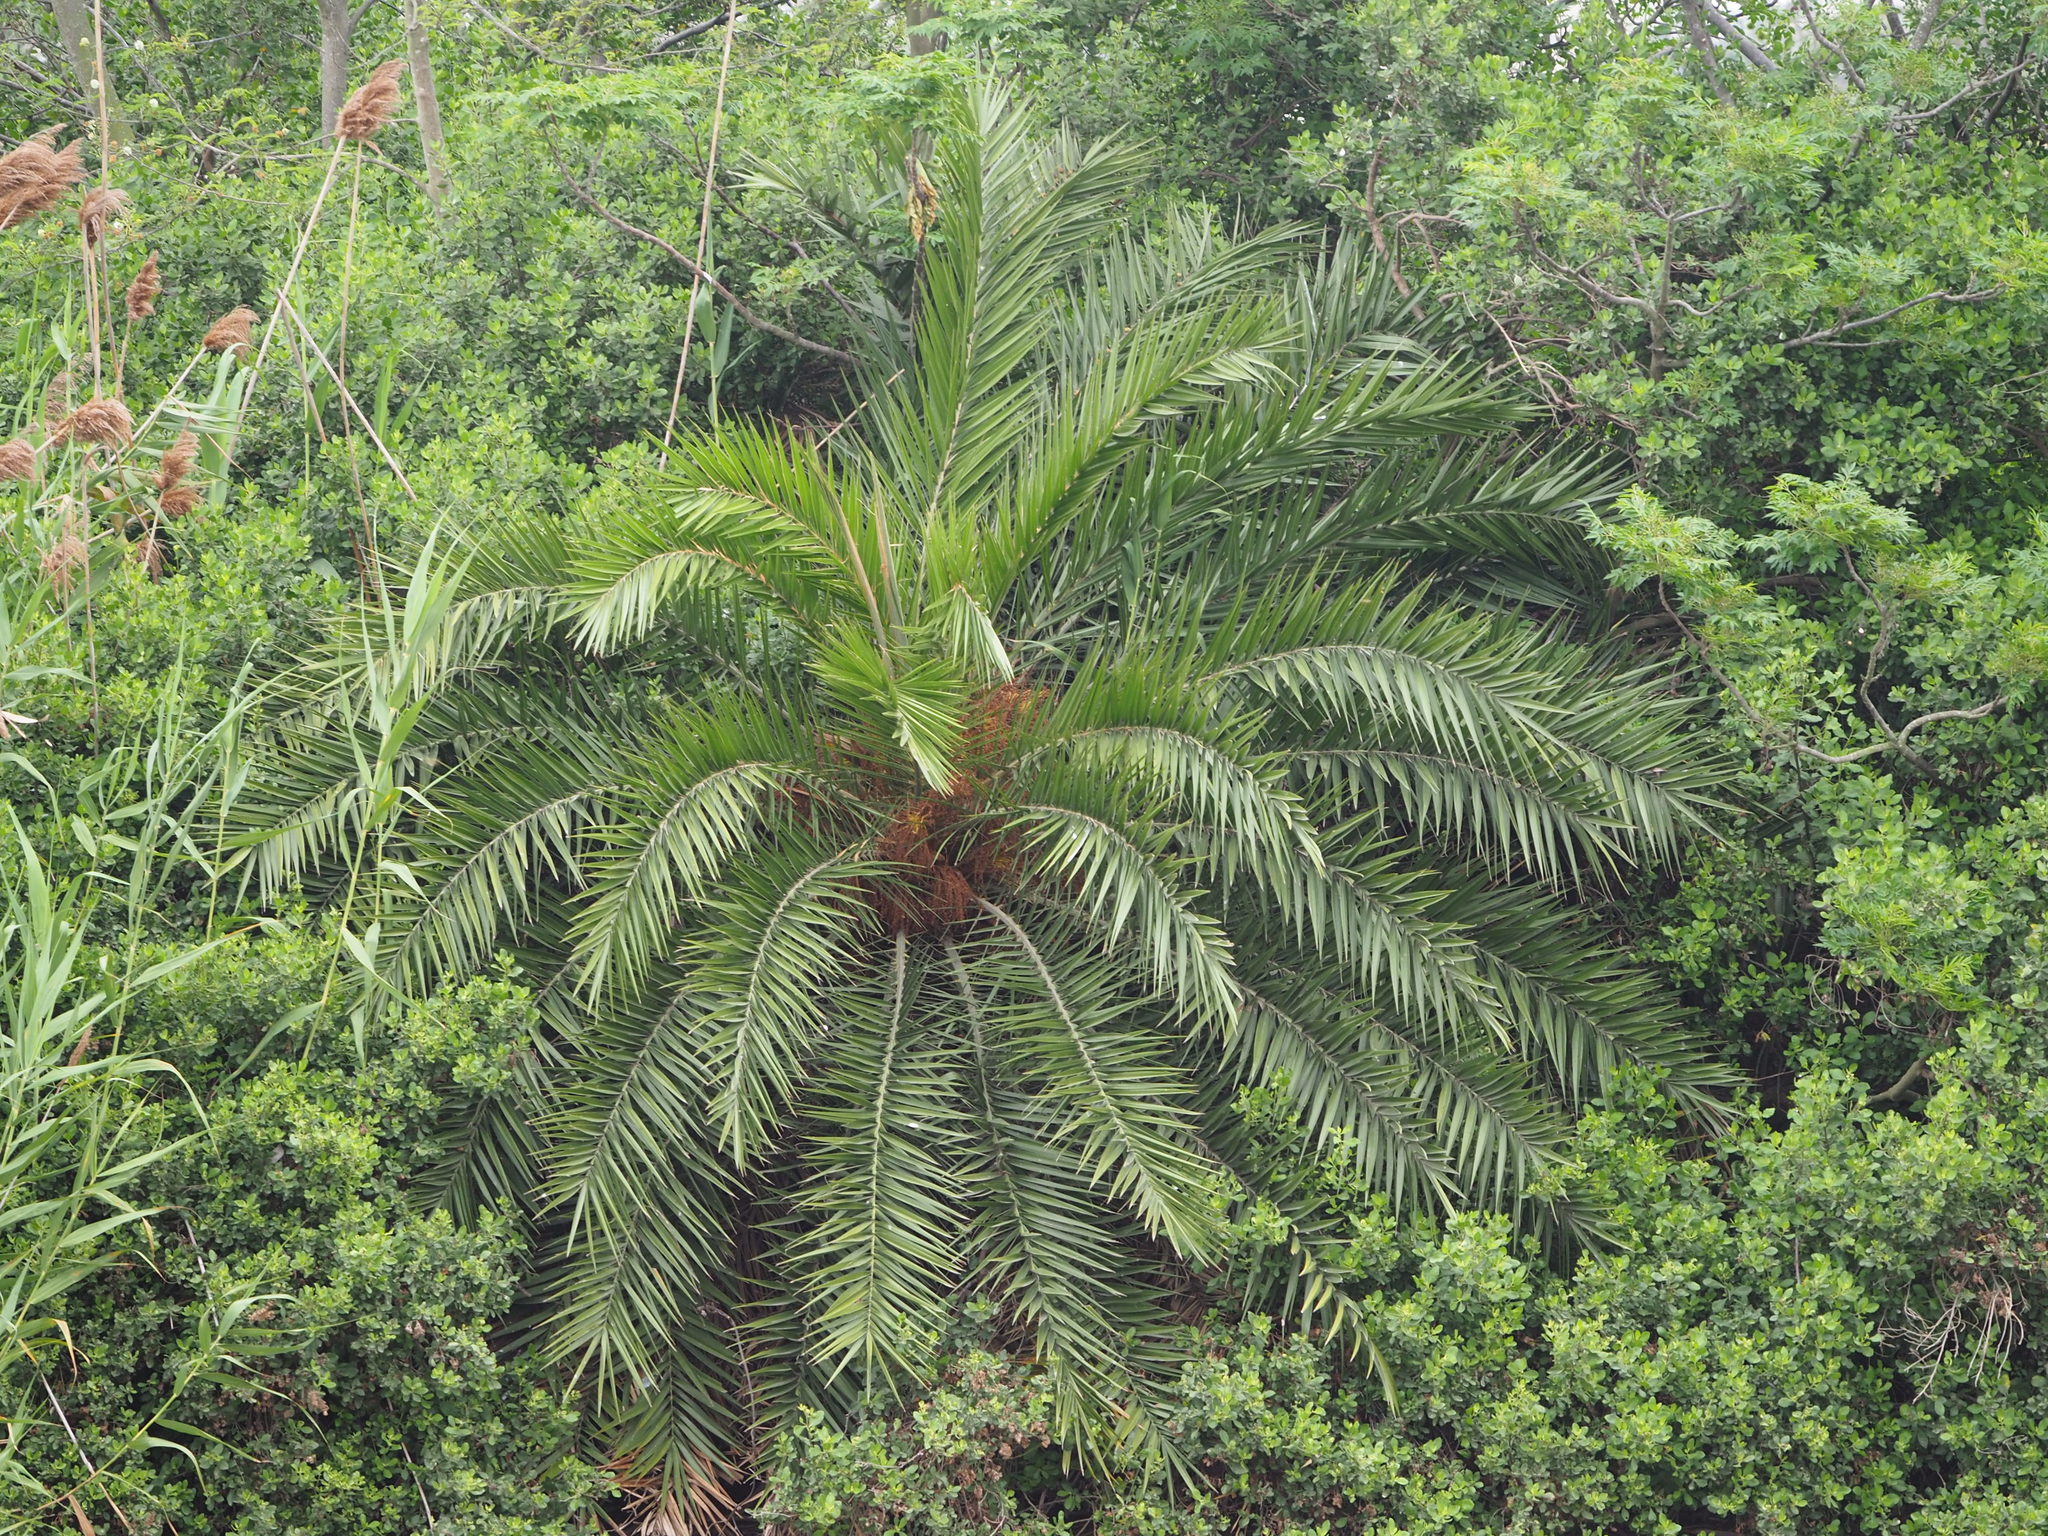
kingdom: Plantae
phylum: Tracheophyta
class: Liliopsida
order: Arecales
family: Arecaceae
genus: Phoenix
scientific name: Phoenix loureiroi
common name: Loureiro's palm
